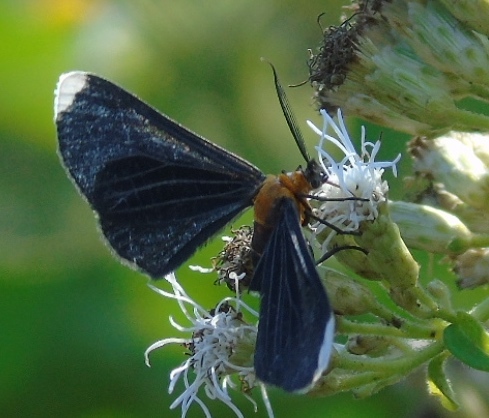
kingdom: Animalia
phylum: Arthropoda
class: Insecta
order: Lepidoptera
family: Geometridae
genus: Melanchroia
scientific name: Melanchroia chephise
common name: White-tipped black
